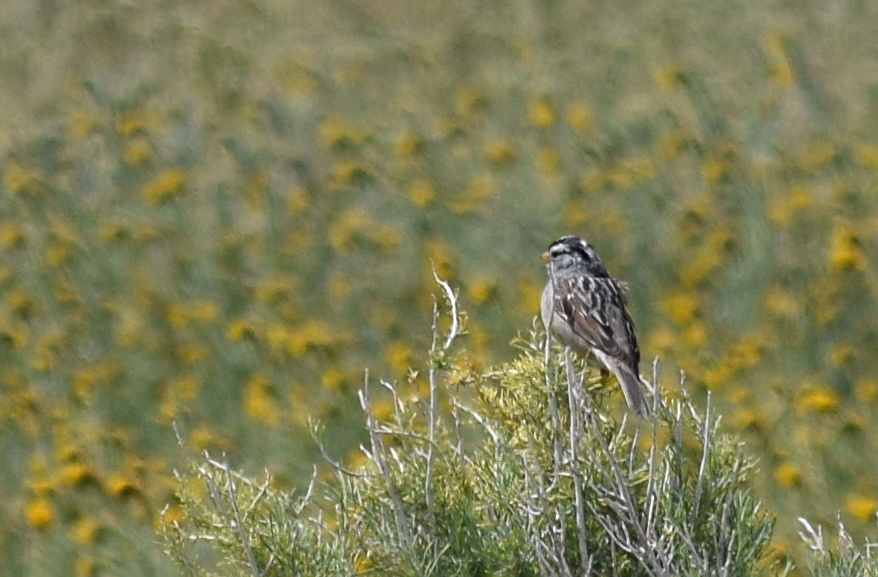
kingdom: Animalia
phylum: Chordata
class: Aves
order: Passeriformes
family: Passerellidae
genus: Zonotrichia
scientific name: Zonotrichia leucophrys
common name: White-crowned sparrow
